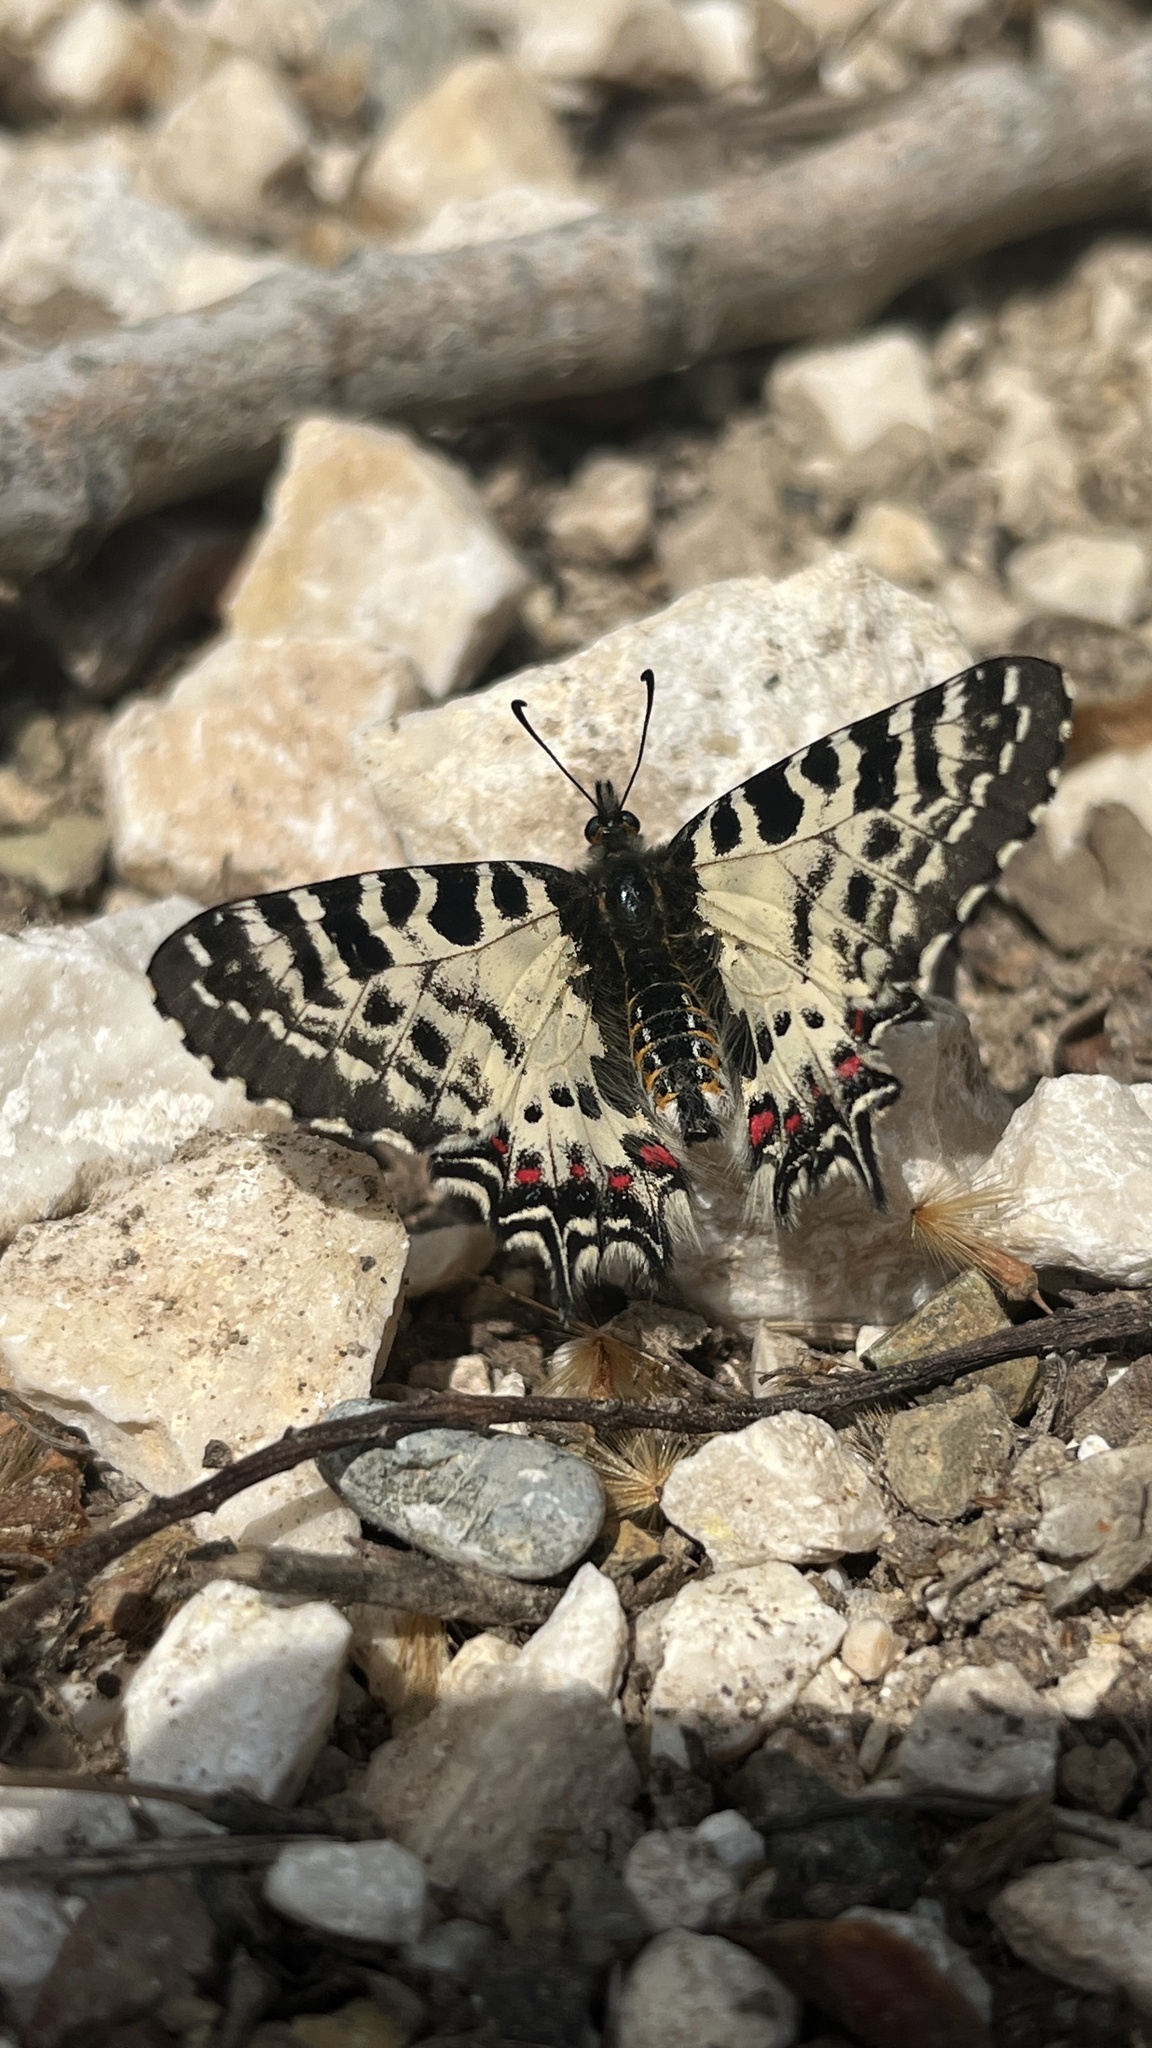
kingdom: Animalia
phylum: Arthropoda
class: Insecta
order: Lepidoptera
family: Papilionidae
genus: Zerynthia
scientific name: Zerynthia cerisy
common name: Eastern festoon
